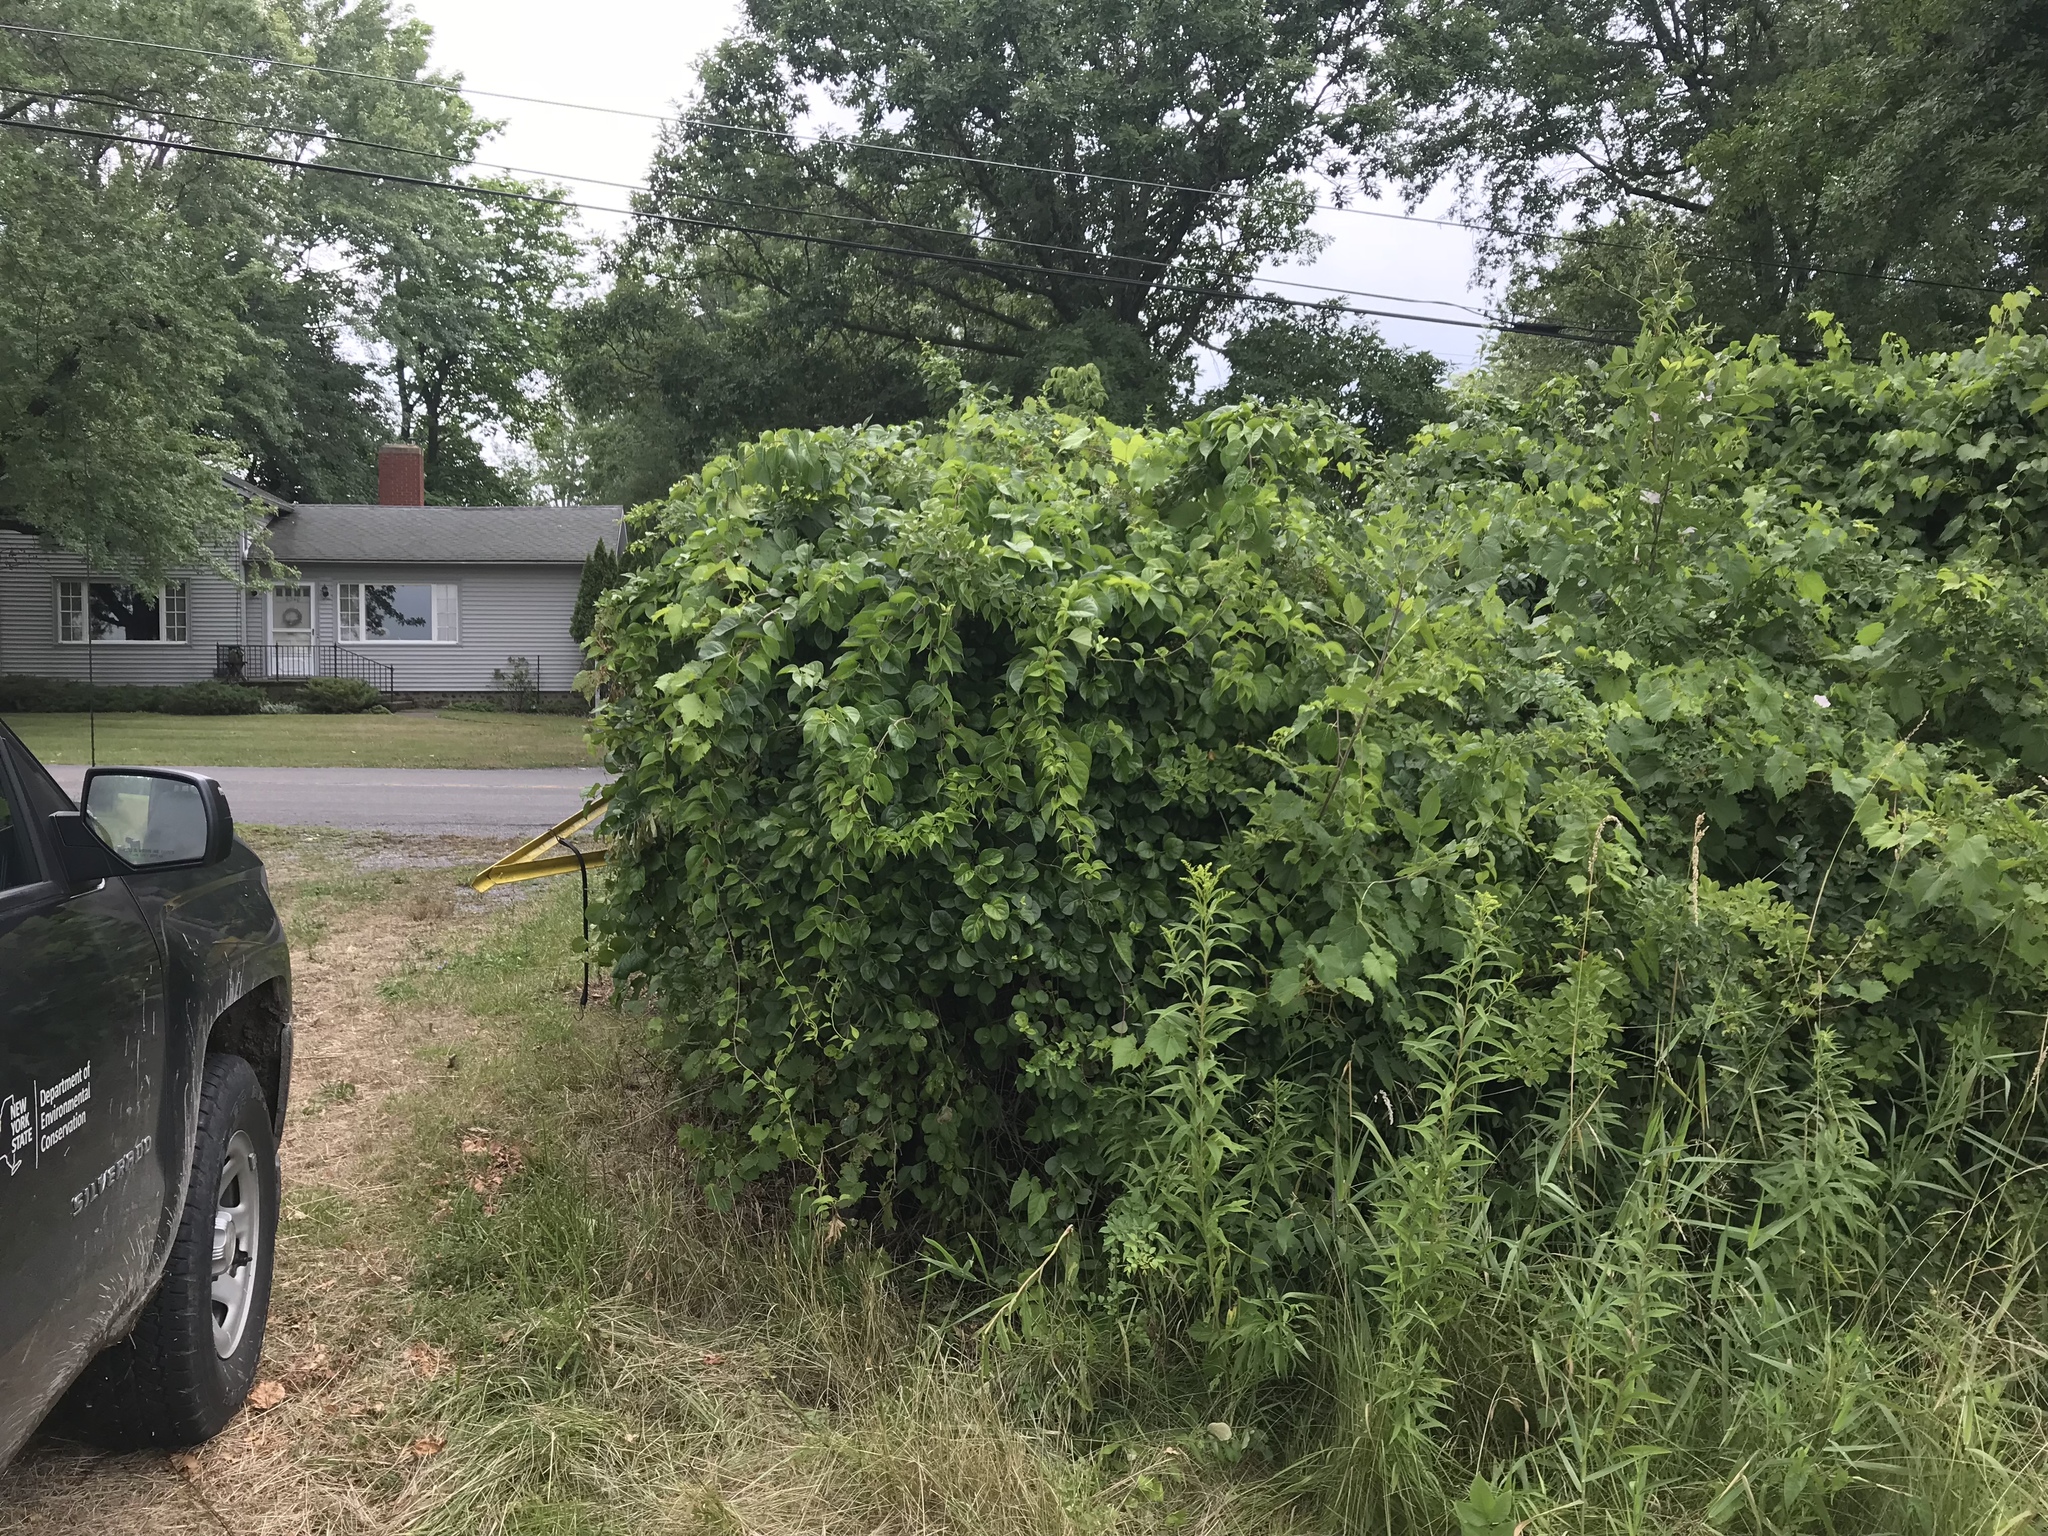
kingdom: Plantae
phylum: Tracheophyta
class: Magnoliopsida
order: Celastrales
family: Celastraceae
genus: Celastrus
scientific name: Celastrus orbiculatus
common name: Oriental bittersweet
